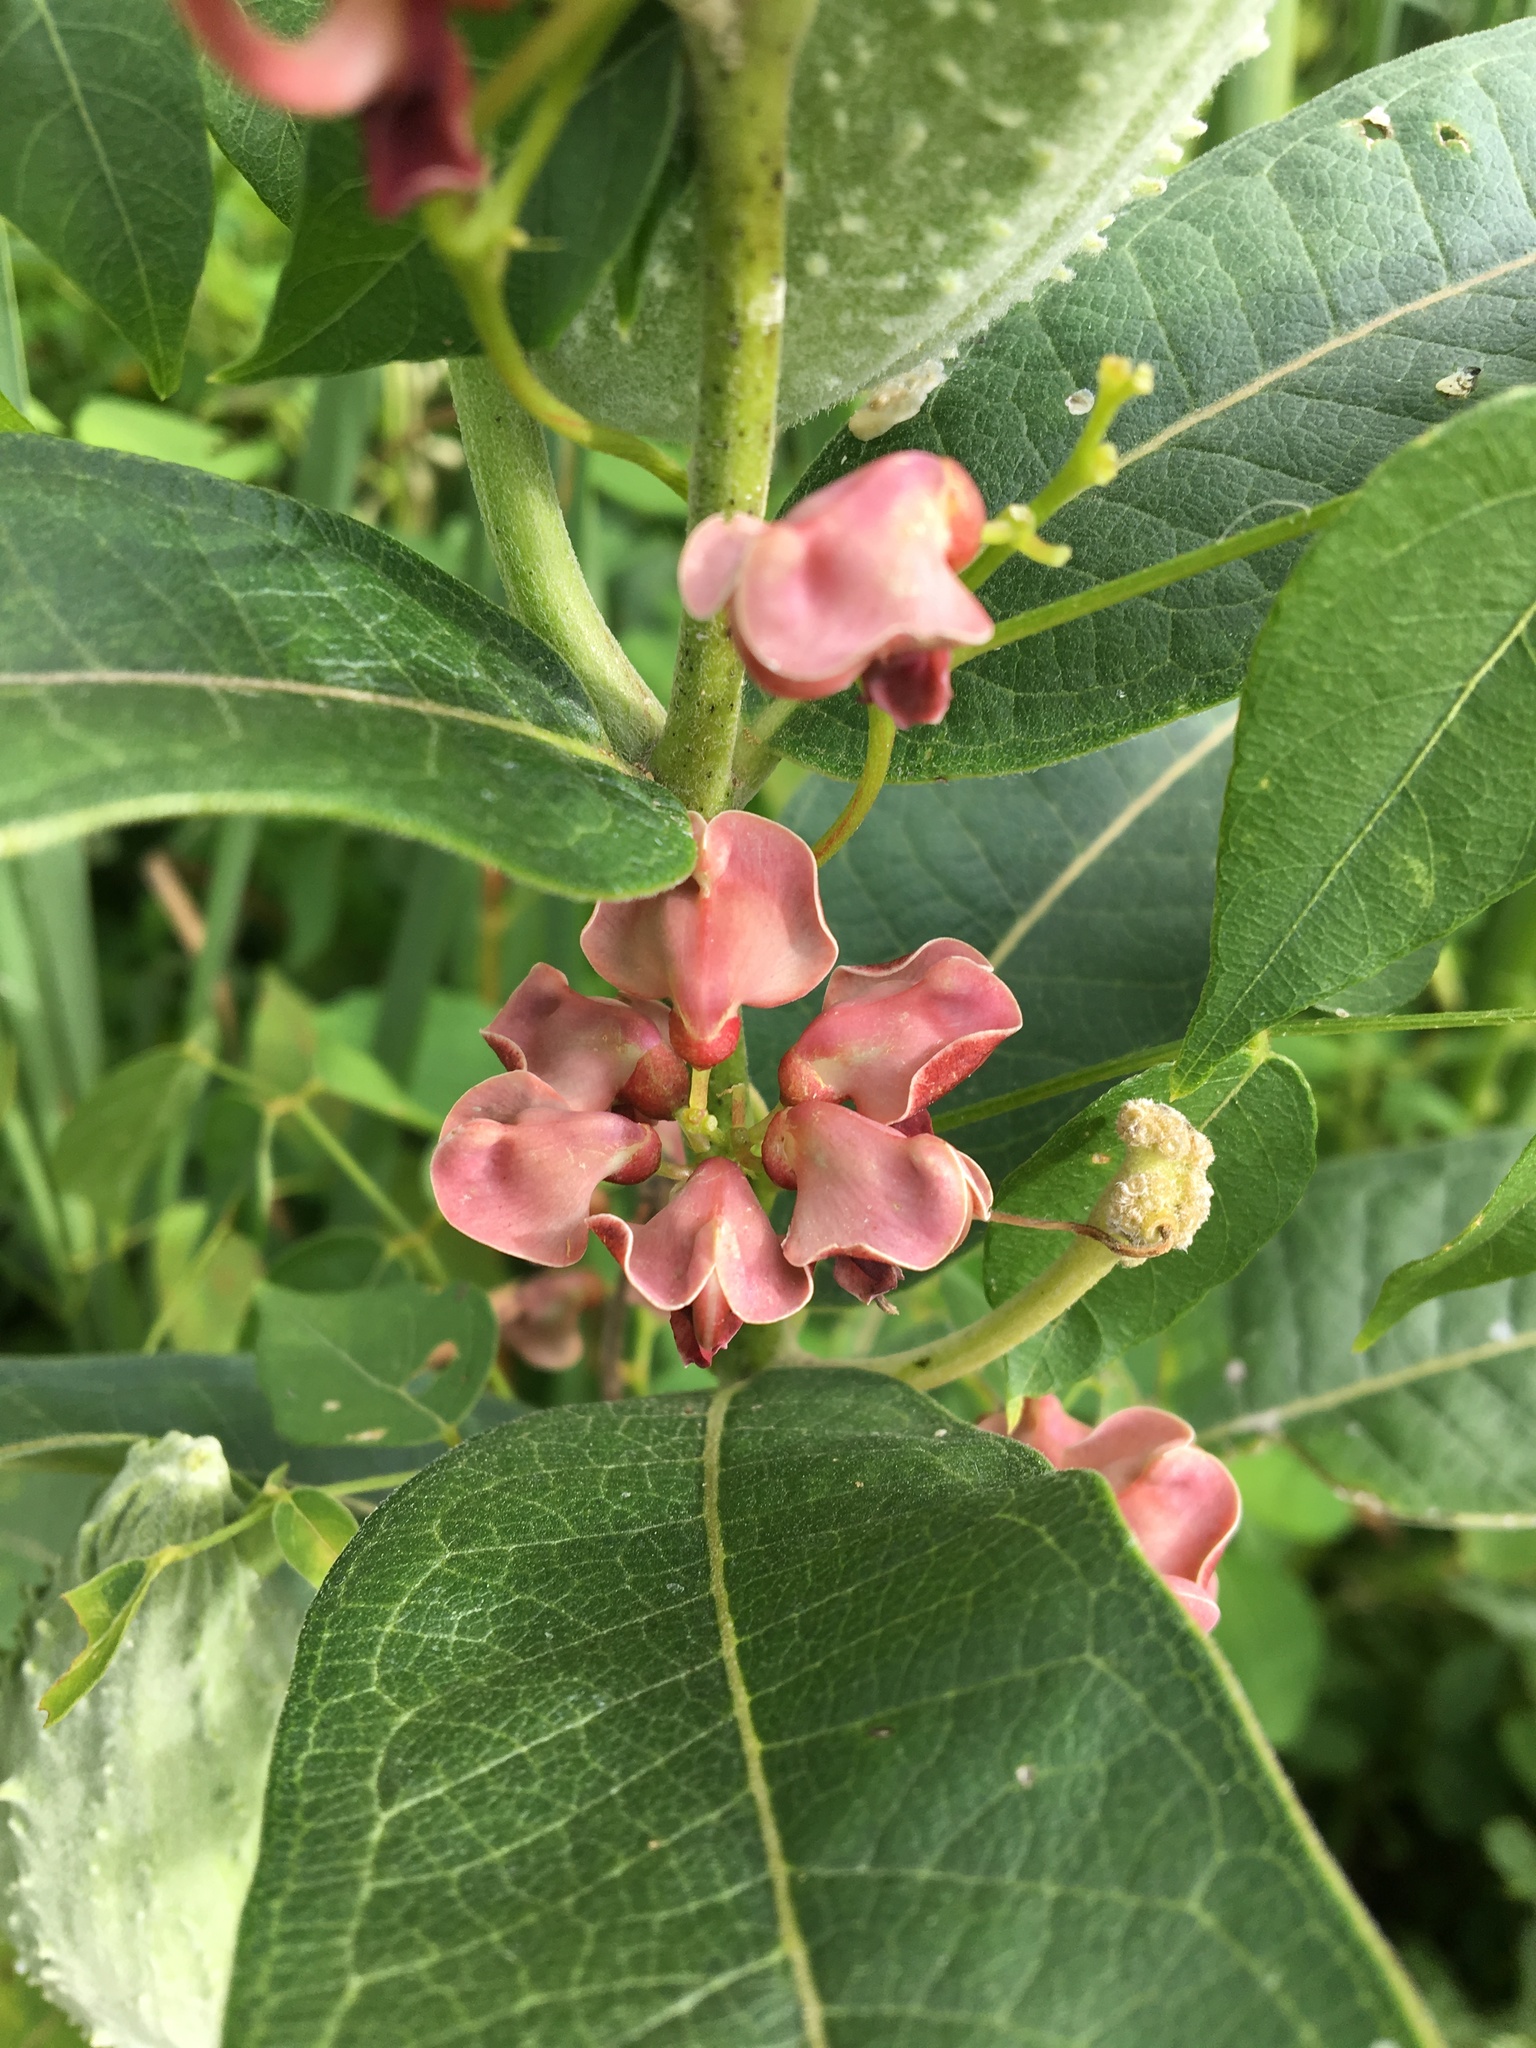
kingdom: Plantae
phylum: Tracheophyta
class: Magnoliopsida
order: Fabales
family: Fabaceae
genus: Apios
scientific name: Apios americana
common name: American potato-bean
